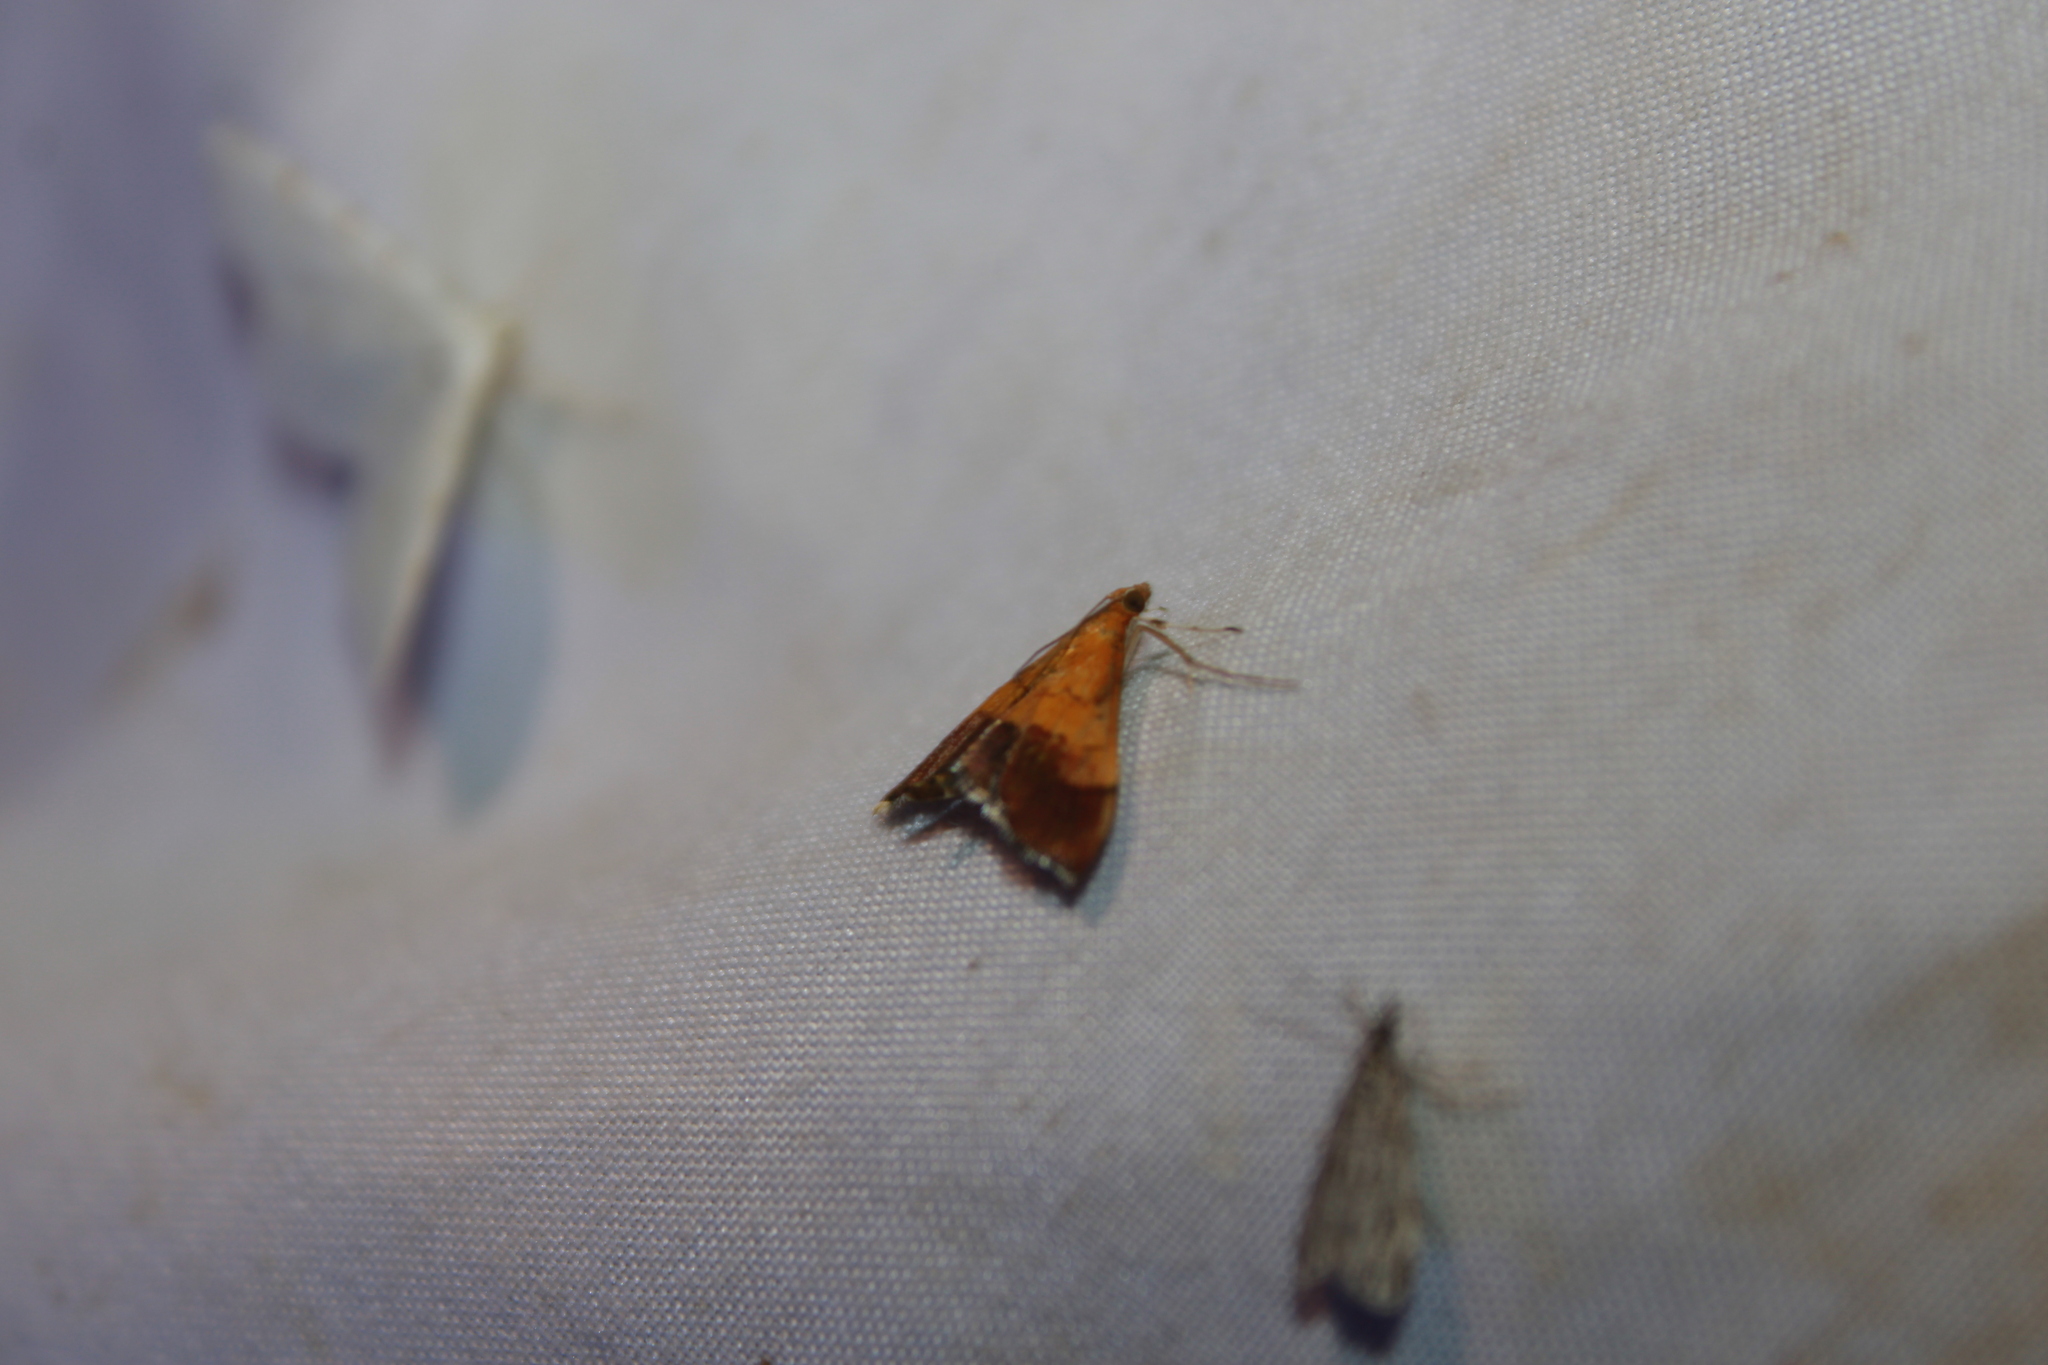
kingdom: Animalia
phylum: Arthropoda
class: Insecta
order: Lepidoptera
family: Crambidae
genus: Pyrausta
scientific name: Pyrausta bicoloralis
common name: Bicolored pyrausta moth
